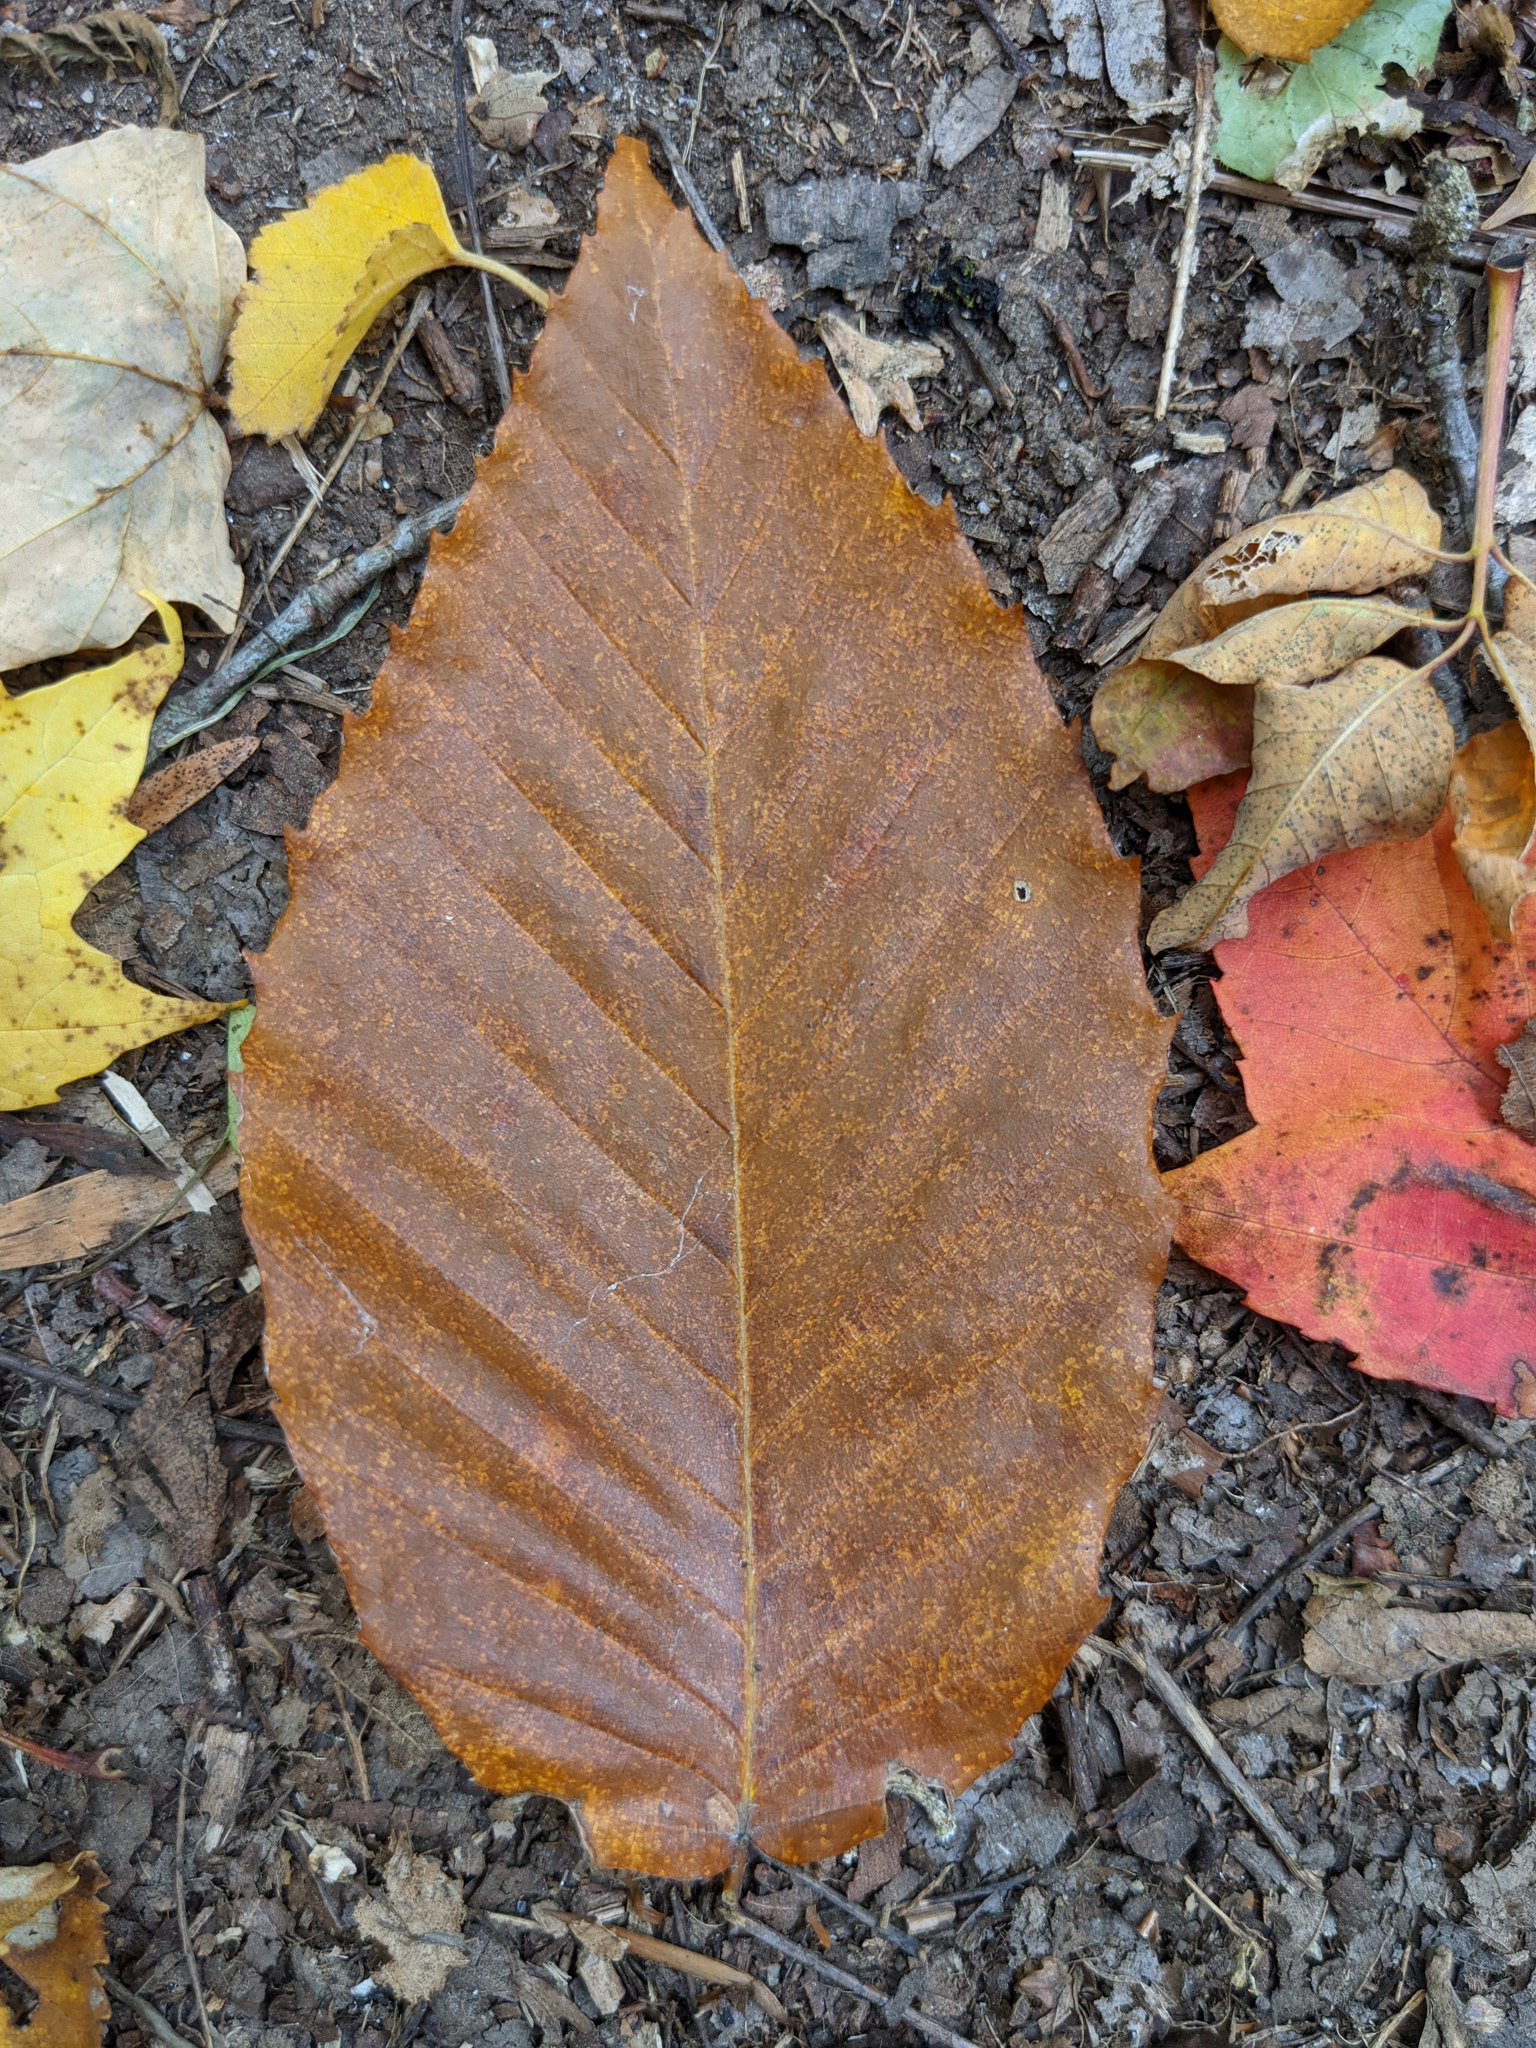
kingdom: Plantae
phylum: Tracheophyta
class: Magnoliopsida
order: Fagales
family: Fagaceae
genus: Fagus
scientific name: Fagus grandifolia
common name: American beech
